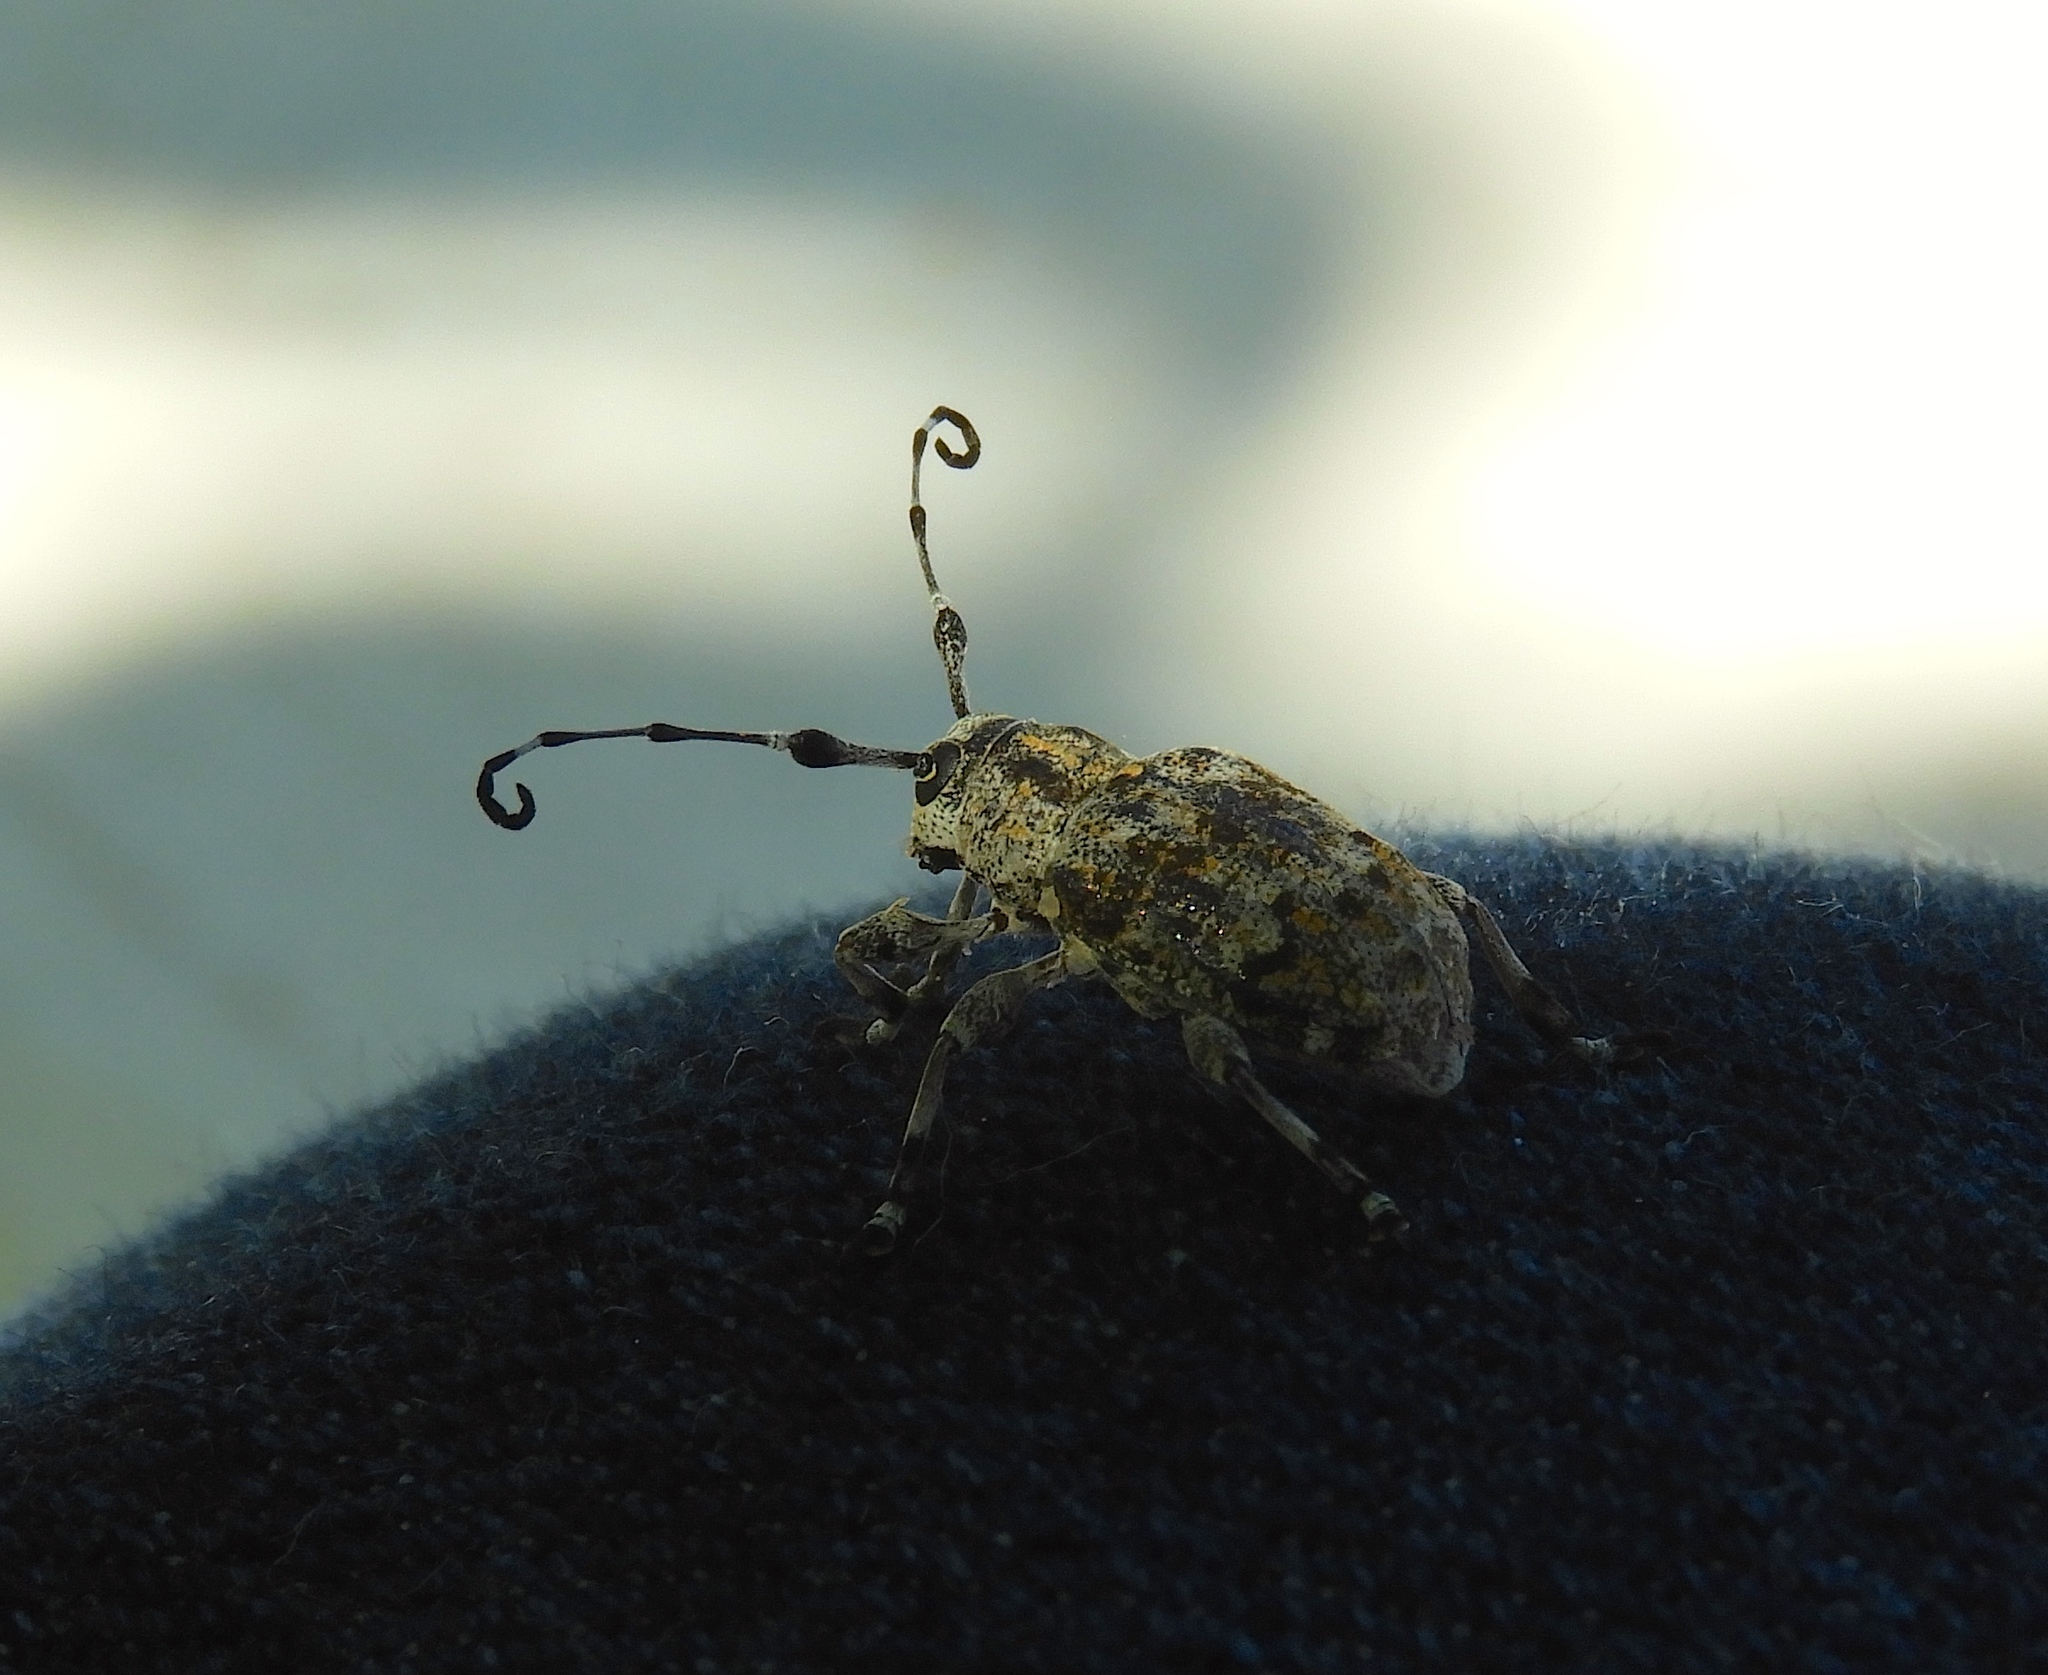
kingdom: Animalia
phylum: Arthropoda
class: Insecta
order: Coleoptera
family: Cerambycidae
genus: Thryallis
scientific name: Thryallis
